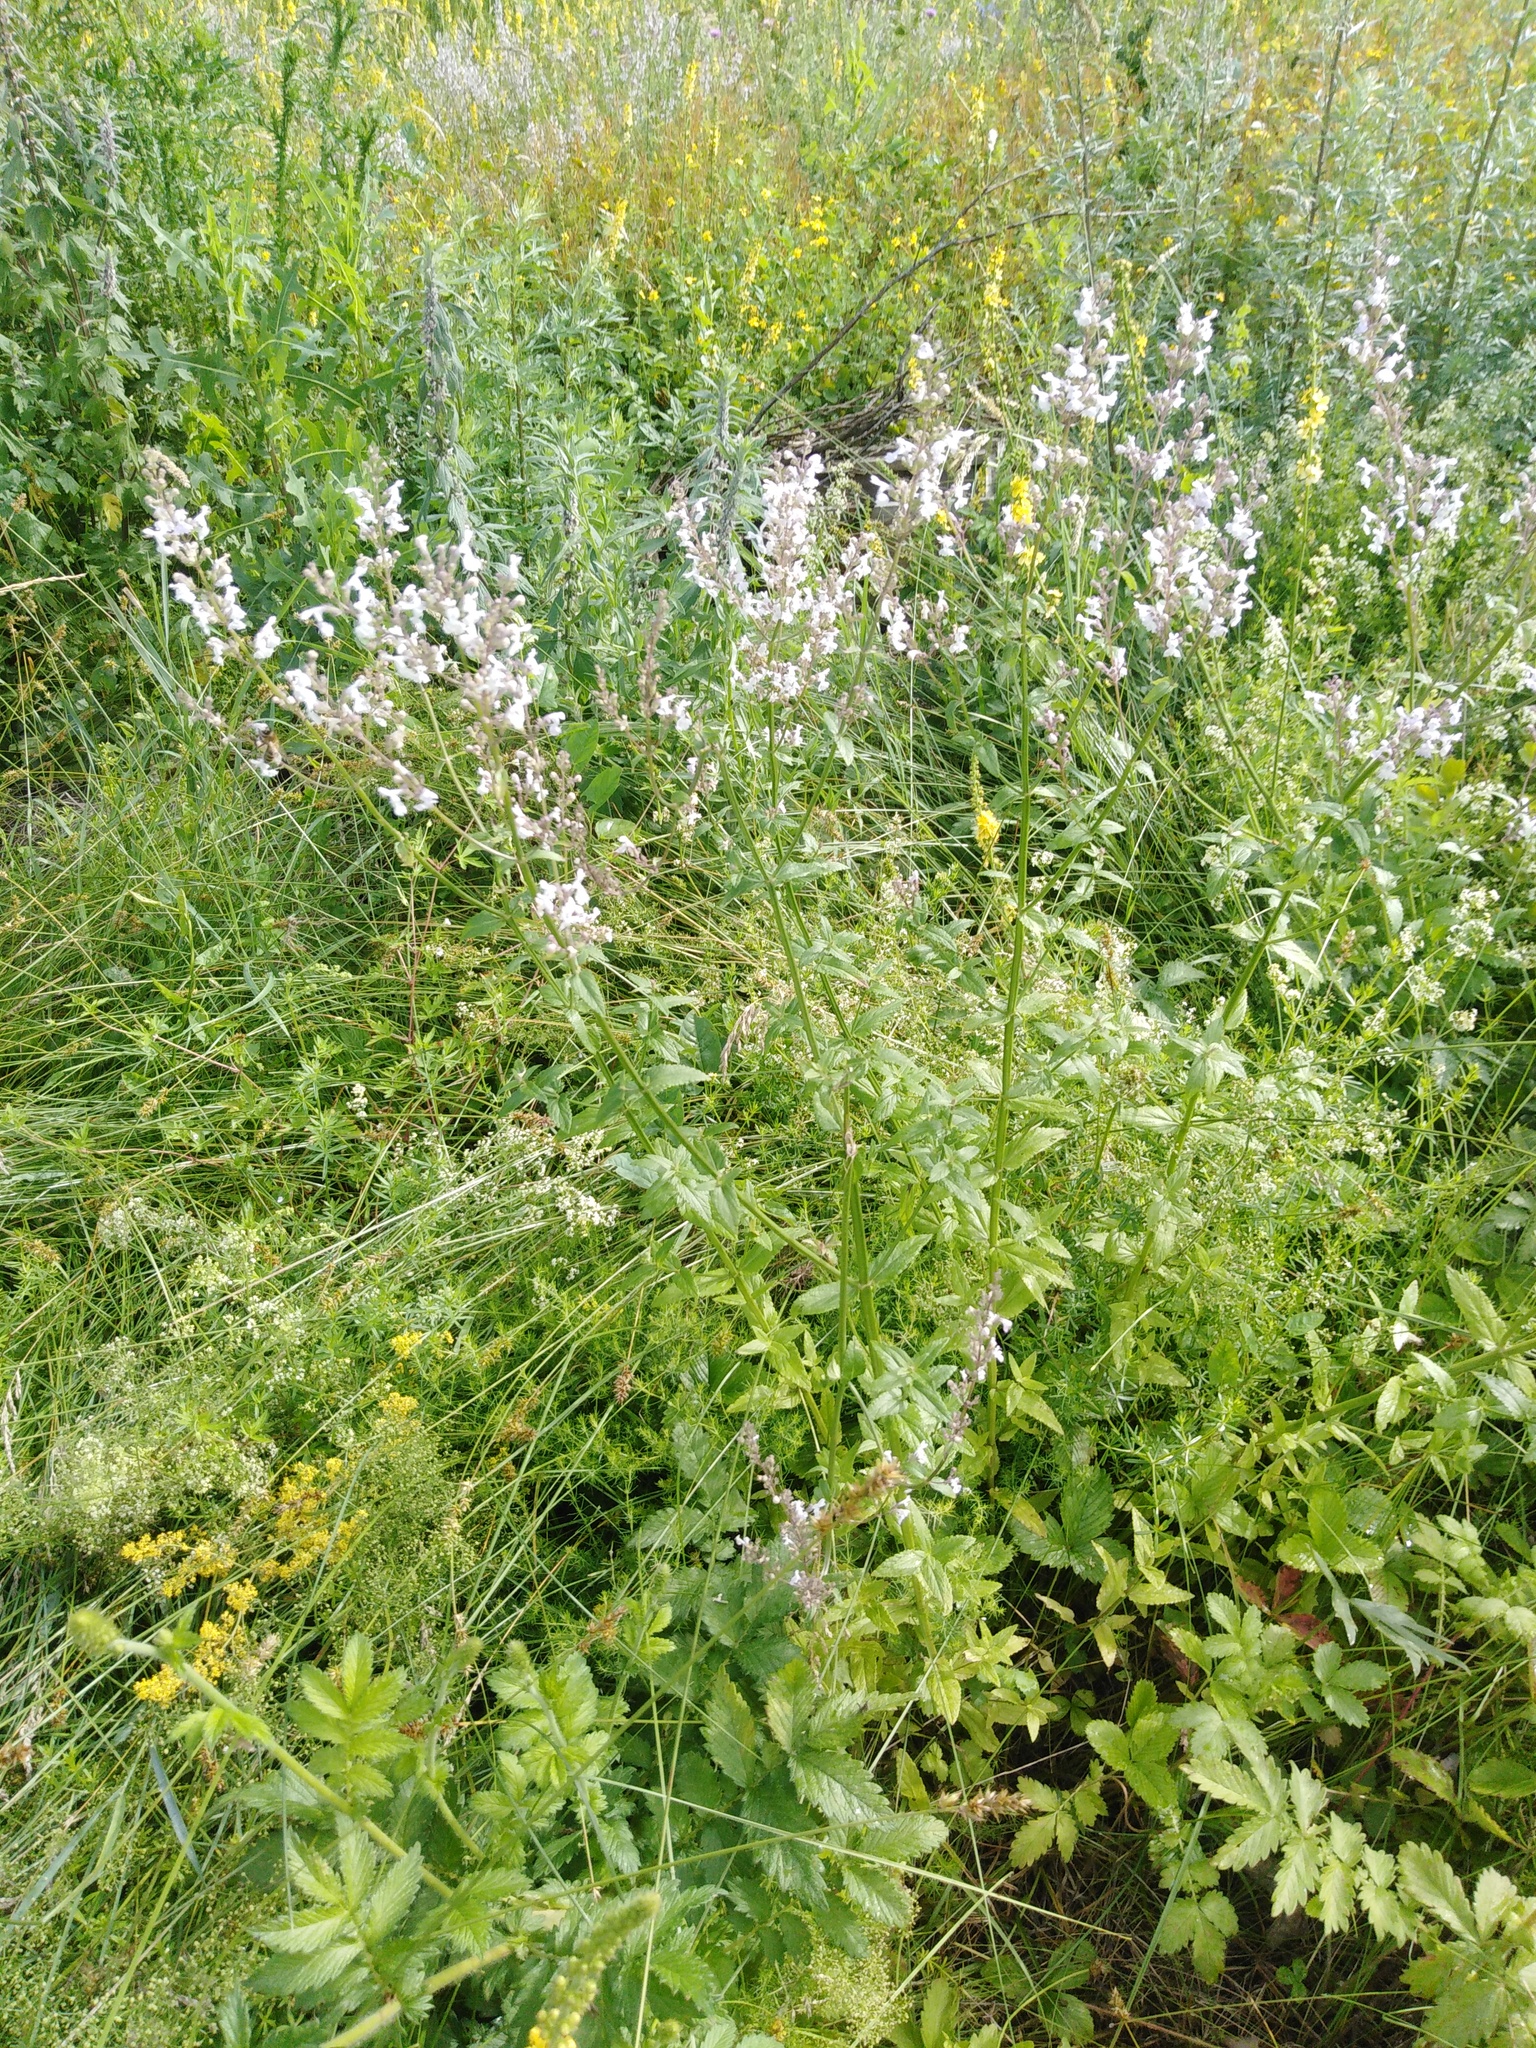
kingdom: Plantae
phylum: Tracheophyta
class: Magnoliopsida
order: Lamiales
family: Lamiaceae
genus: Nepeta
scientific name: Nepeta nuda
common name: Hairless catmint
